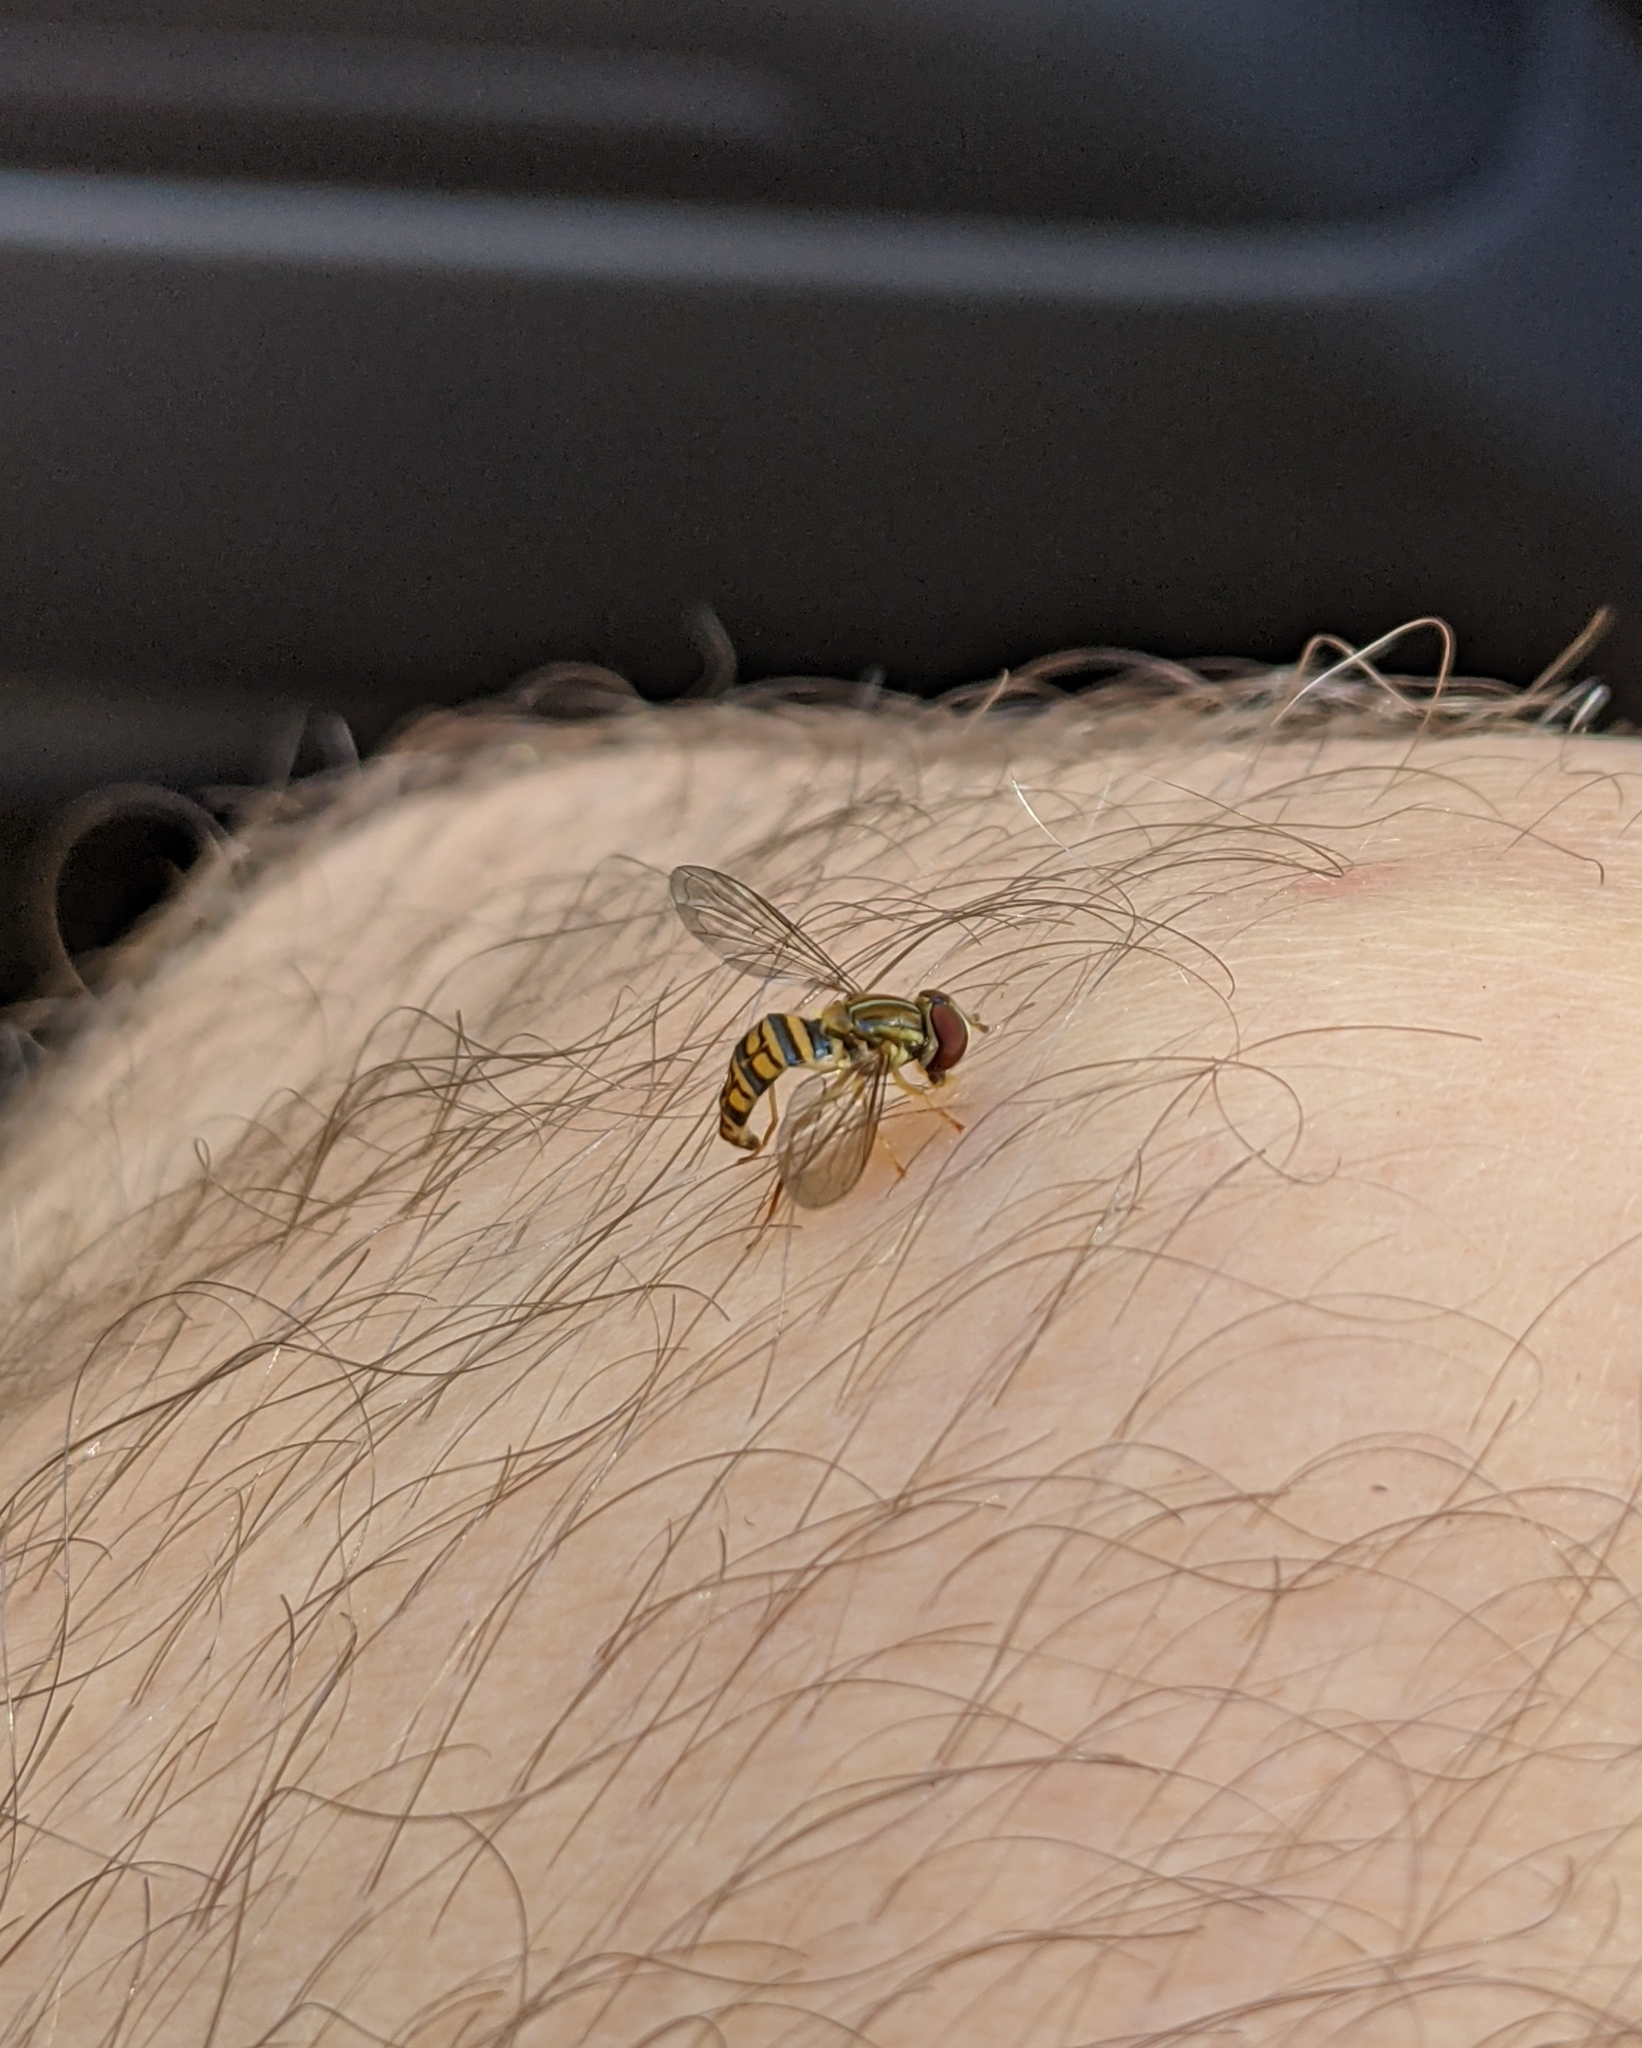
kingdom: Animalia
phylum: Arthropoda
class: Insecta
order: Diptera
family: Syrphidae
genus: Toxomerus
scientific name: Toxomerus politus
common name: Maize calligrapher
